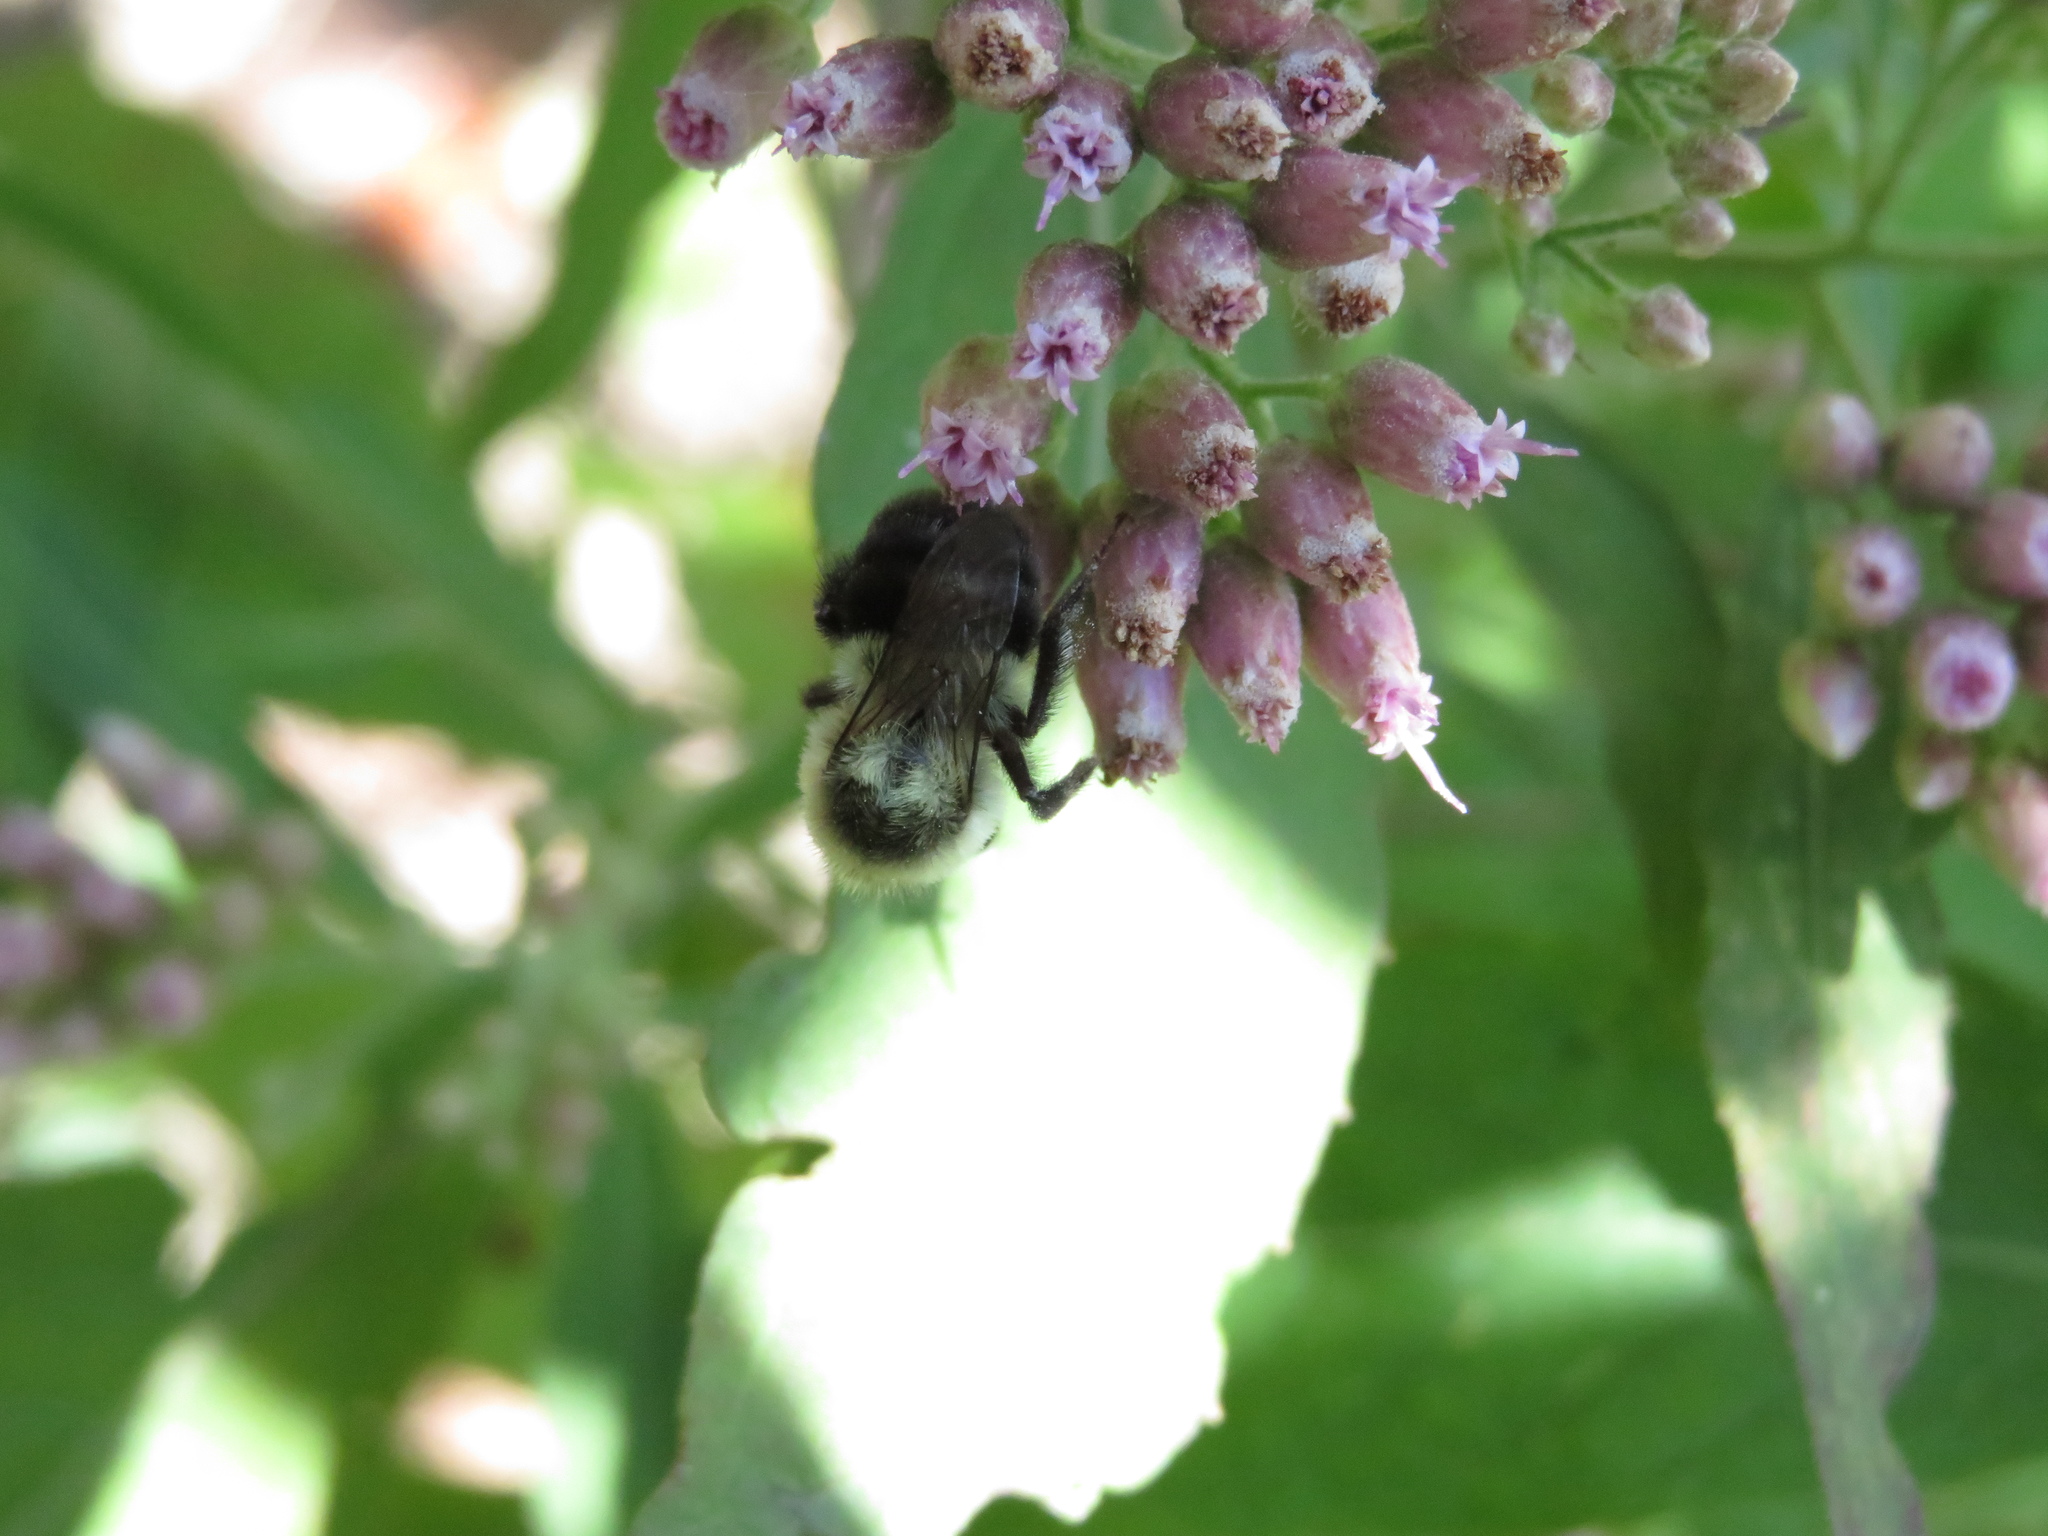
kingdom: Animalia
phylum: Arthropoda
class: Insecta
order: Hymenoptera
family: Apidae
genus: Bombus
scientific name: Bombus impatiens
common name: Common eastern bumble bee
